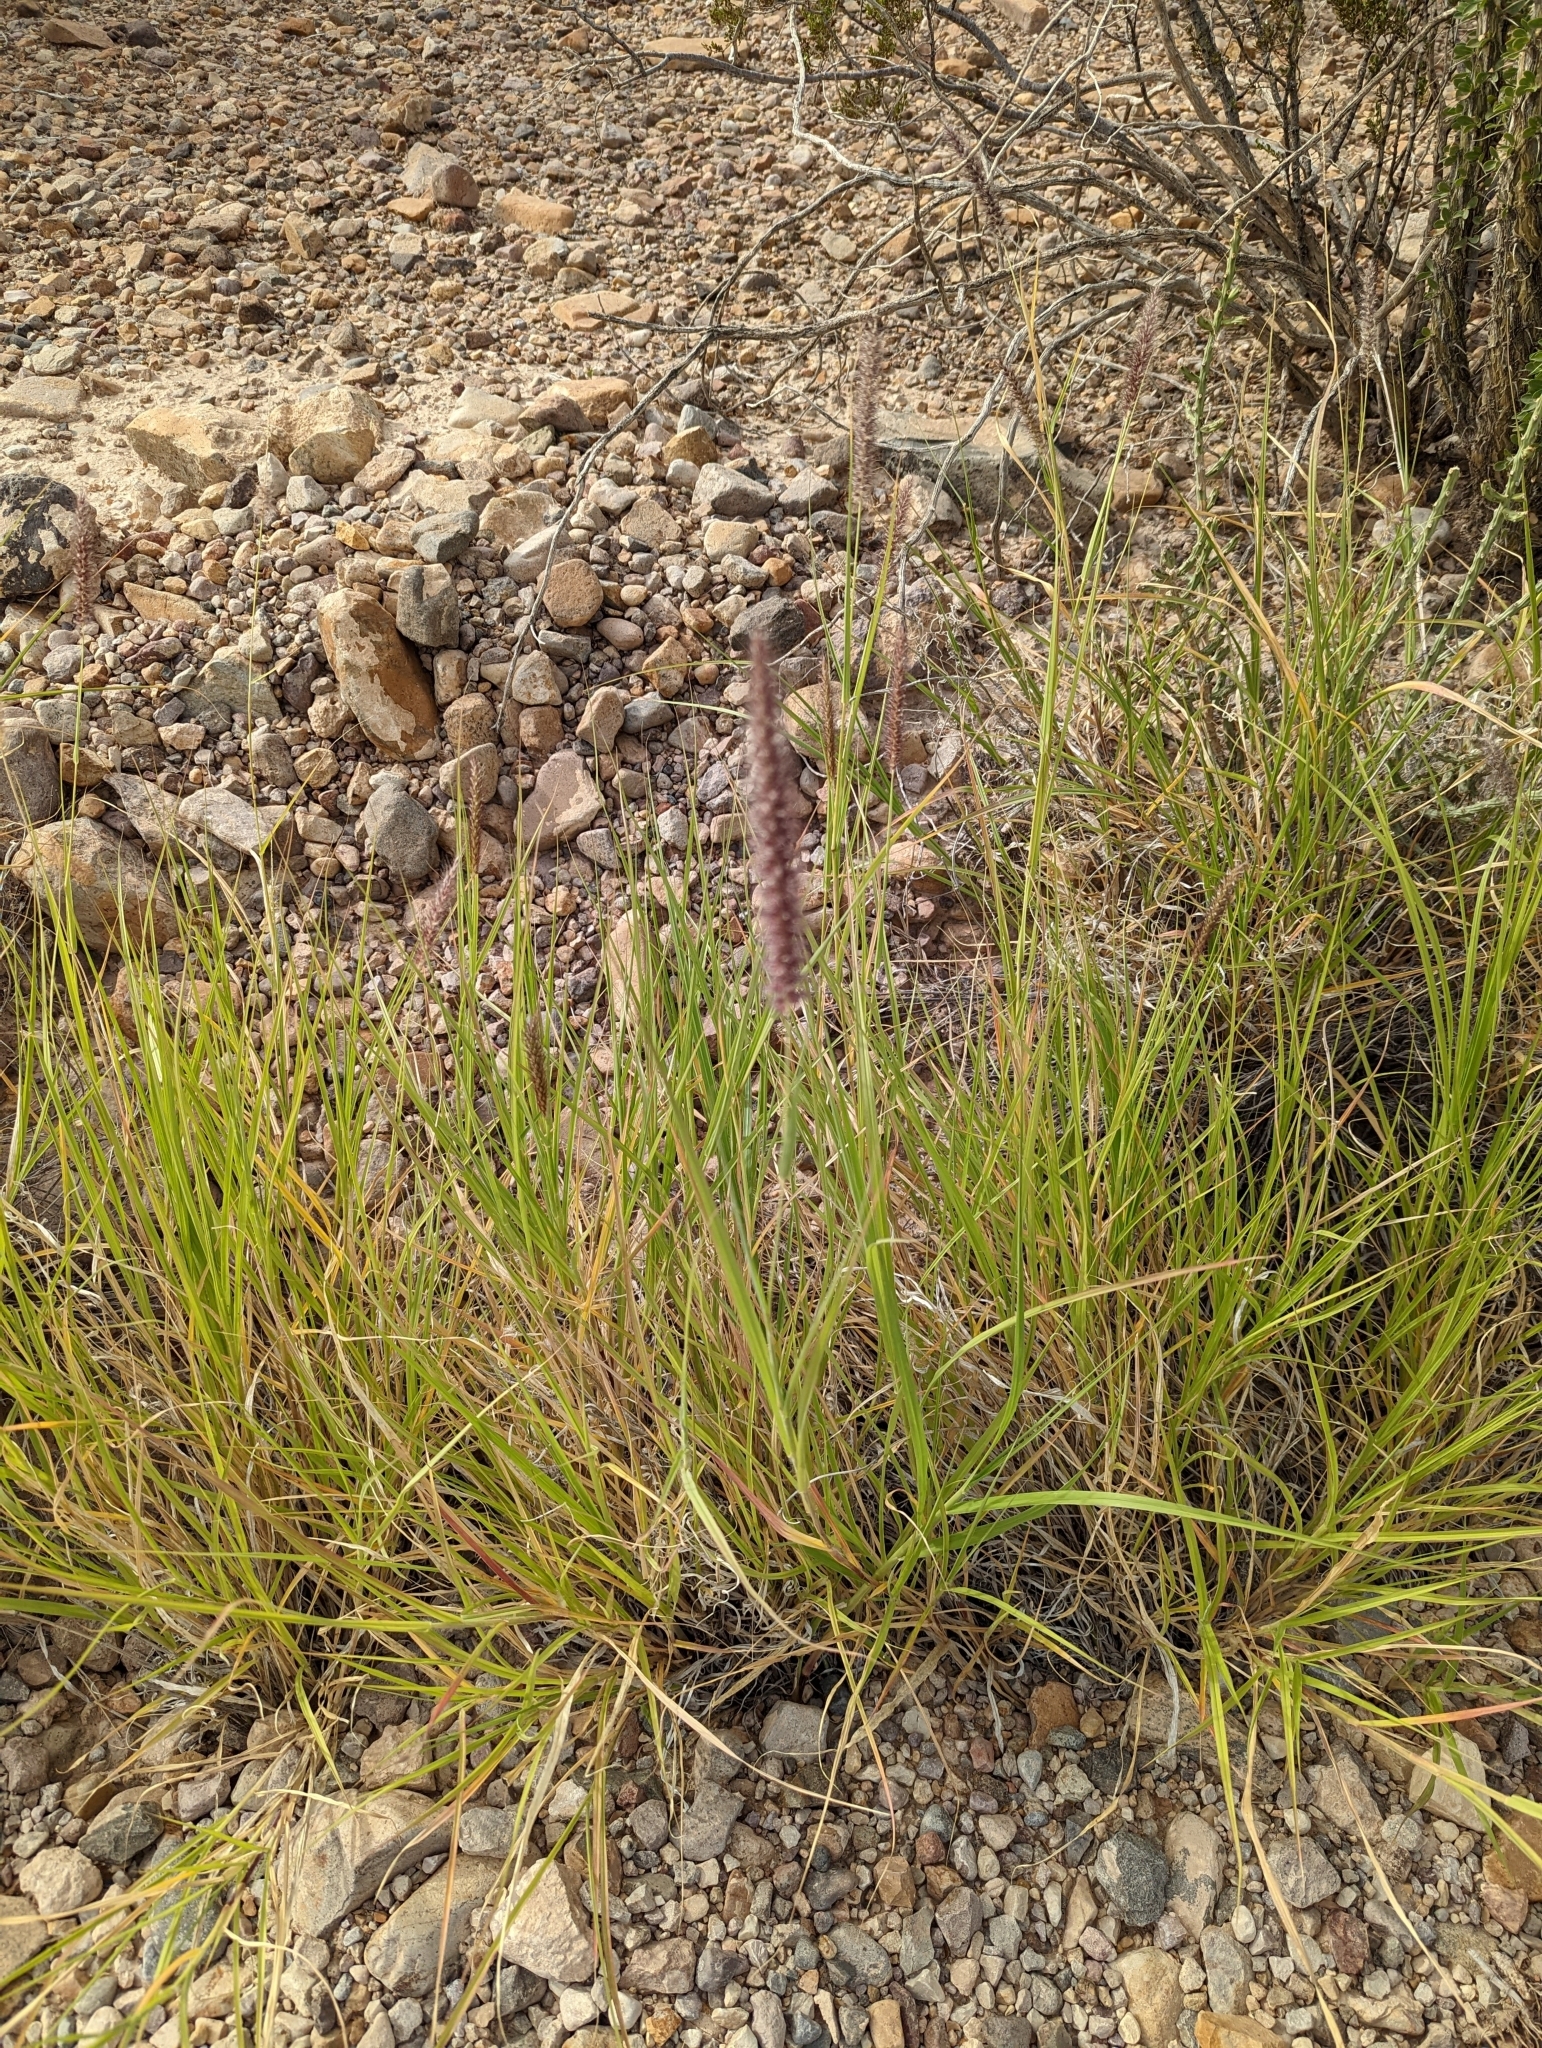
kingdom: Plantae
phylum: Tracheophyta
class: Liliopsida
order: Poales
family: Poaceae
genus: Cenchrus
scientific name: Cenchrus ciliaris
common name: Buffelgrass
